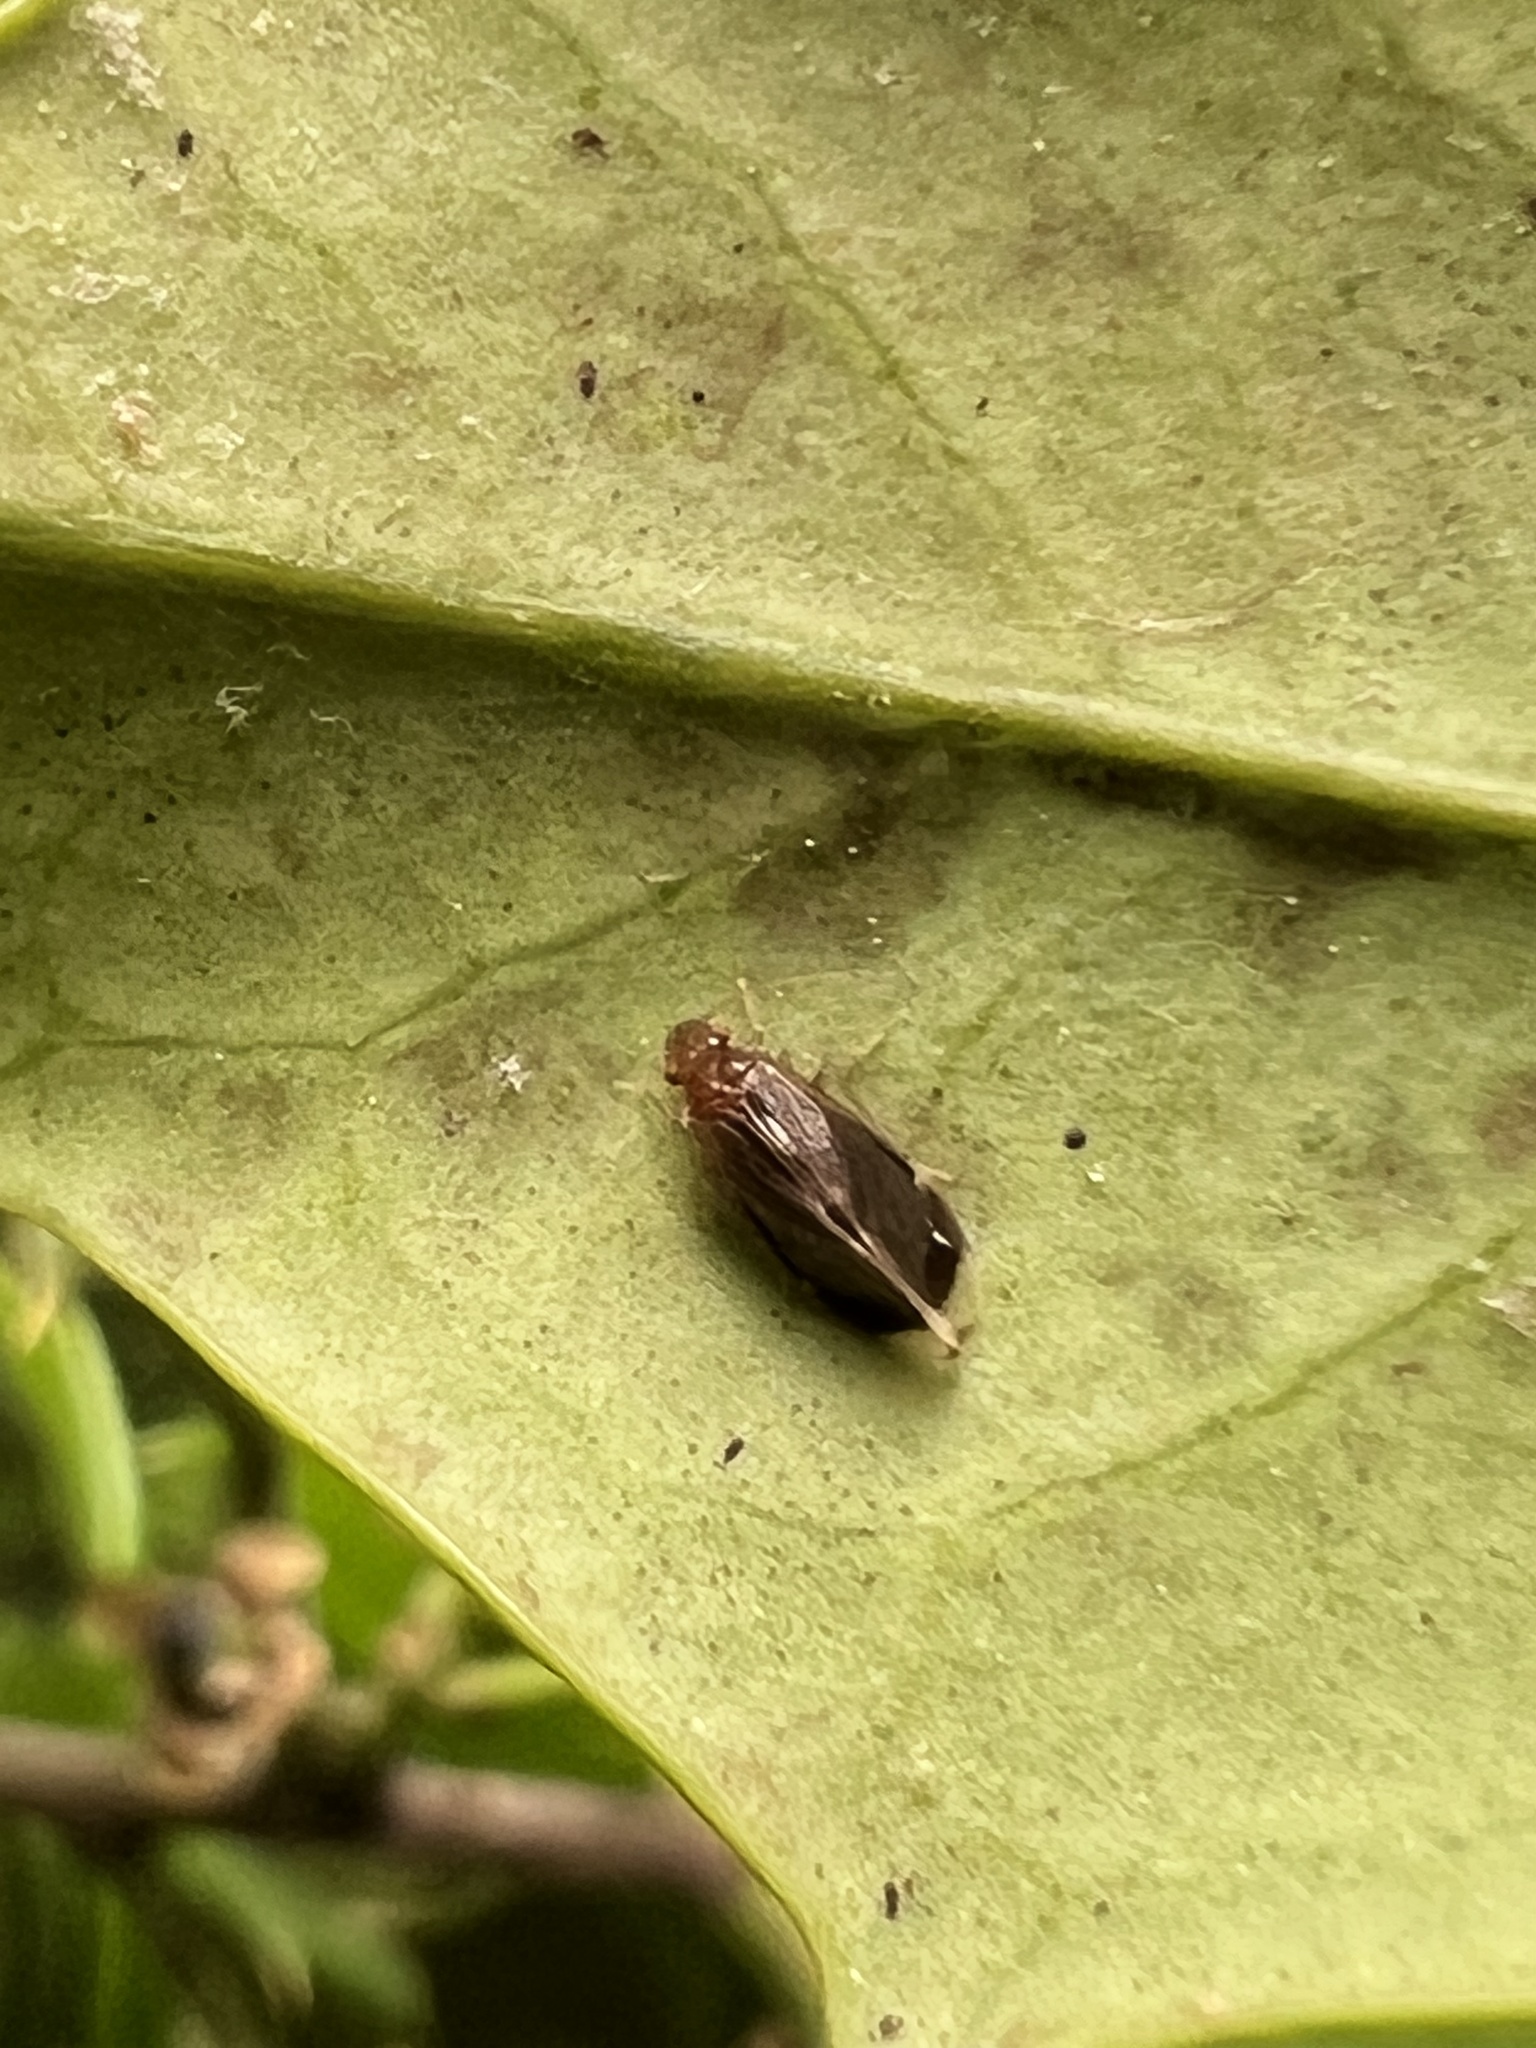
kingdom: Animalia
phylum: Arthropoda
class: Insecta
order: Psocodea
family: Amphipsocidae
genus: Polypsocus
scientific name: Polypsocus corruptus
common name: Corrupt barklouse
